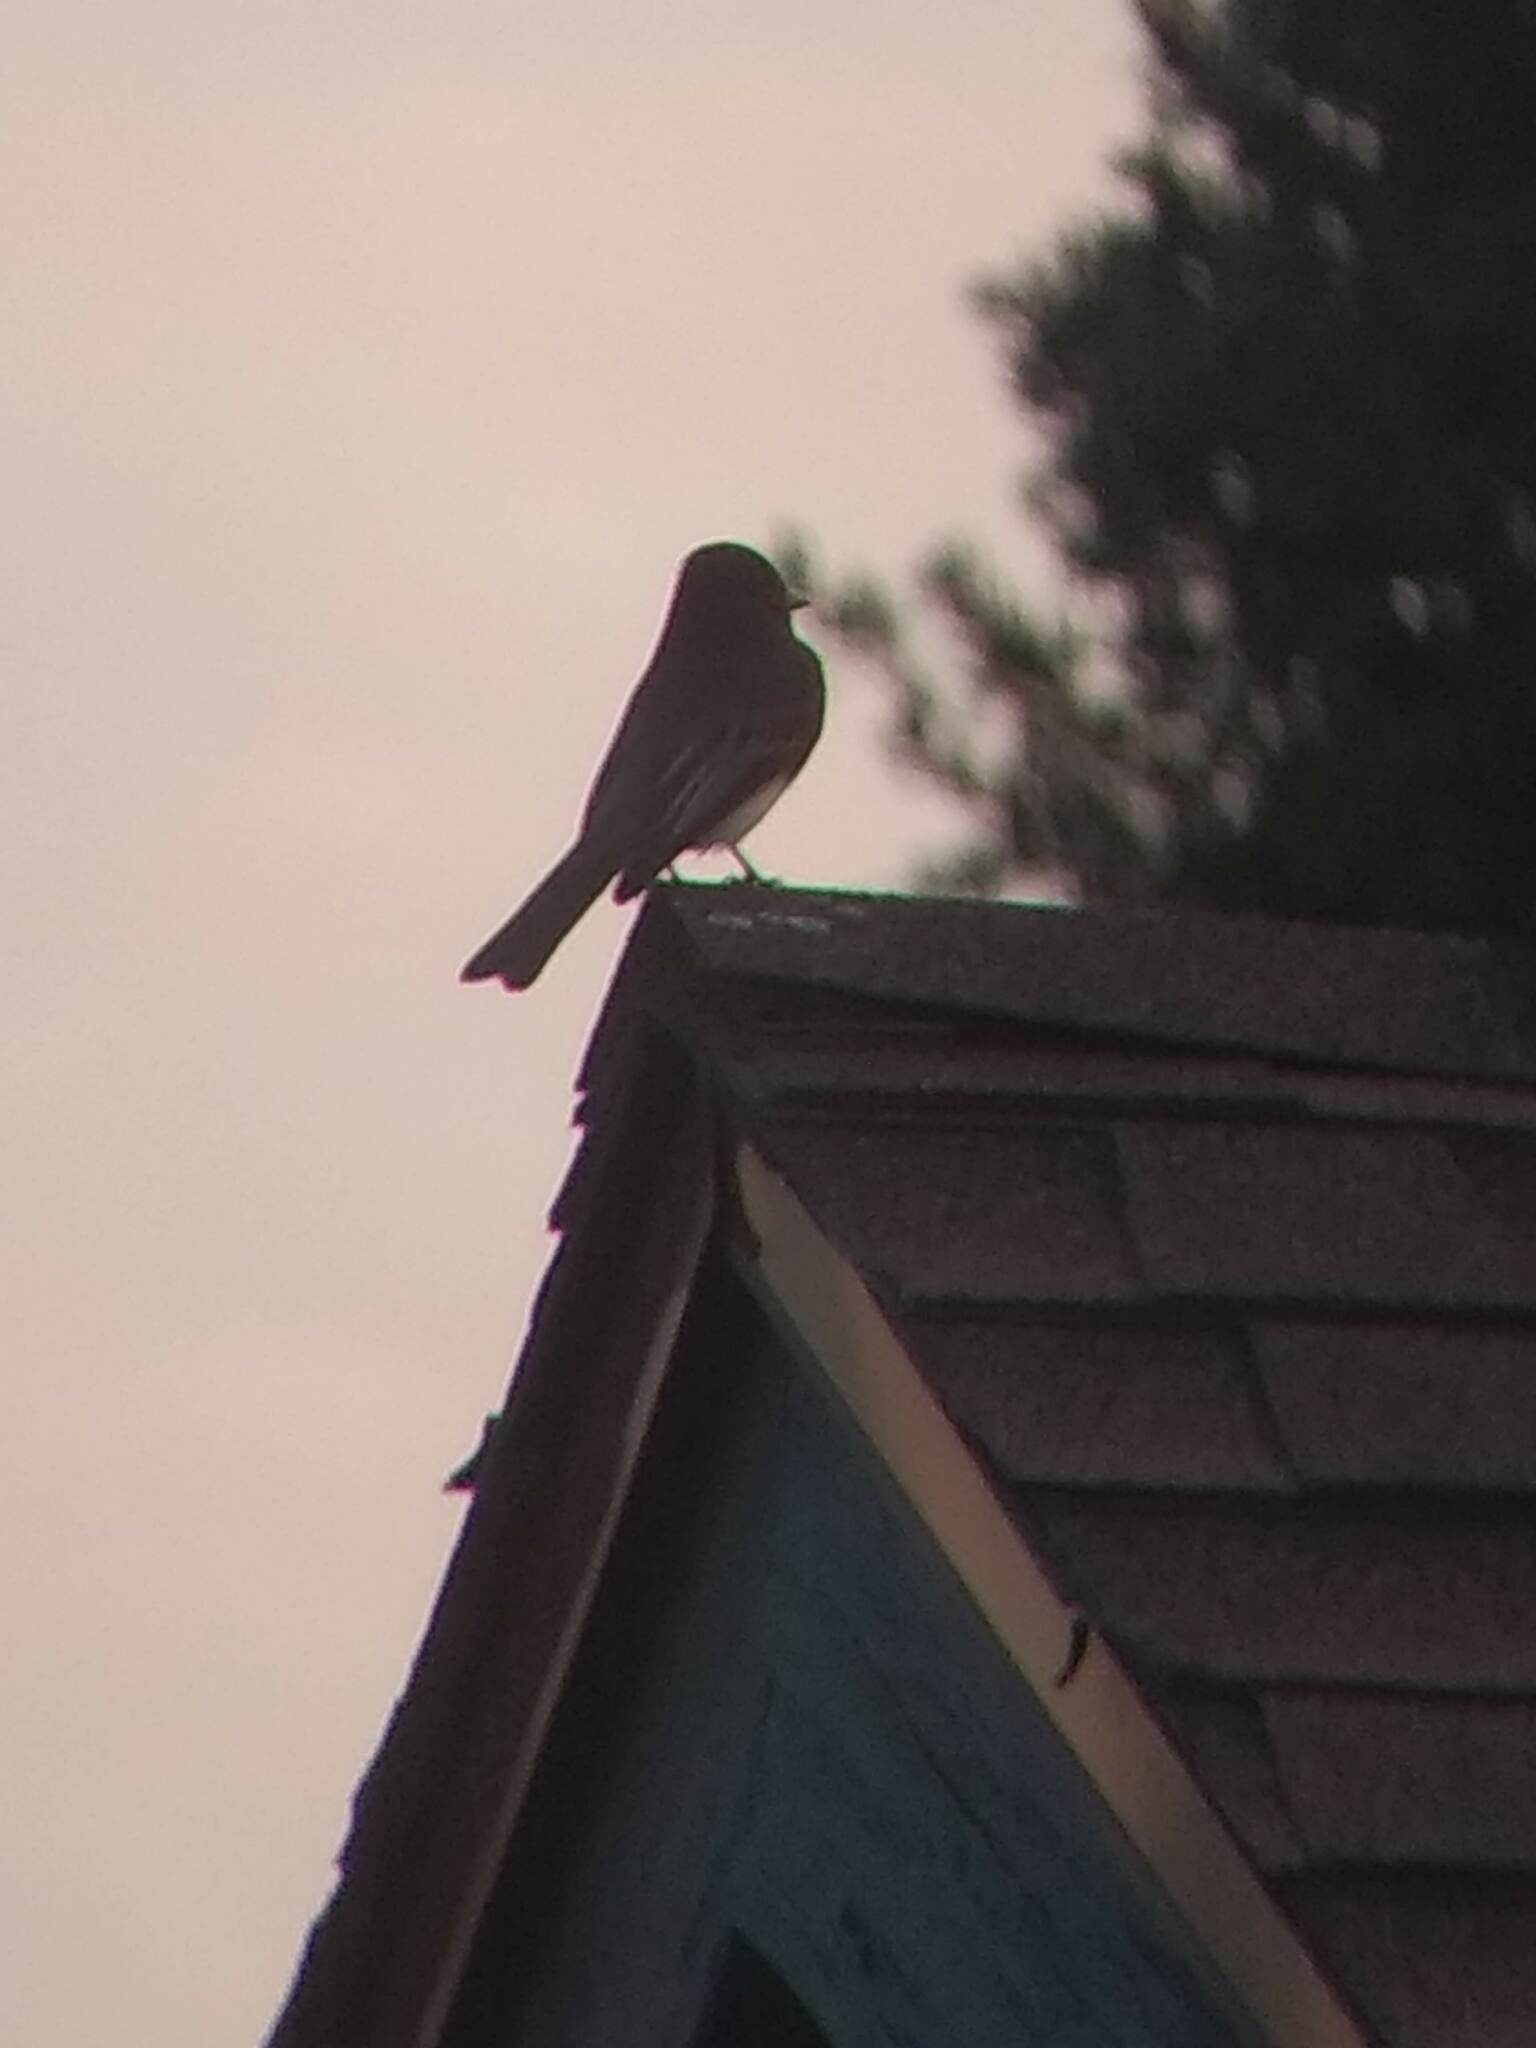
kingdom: Animalia
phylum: Chordata
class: Aves
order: Passeriformes
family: Tyrannidae
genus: Sayornis
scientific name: Sayornis nigricans
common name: Black phoebe
